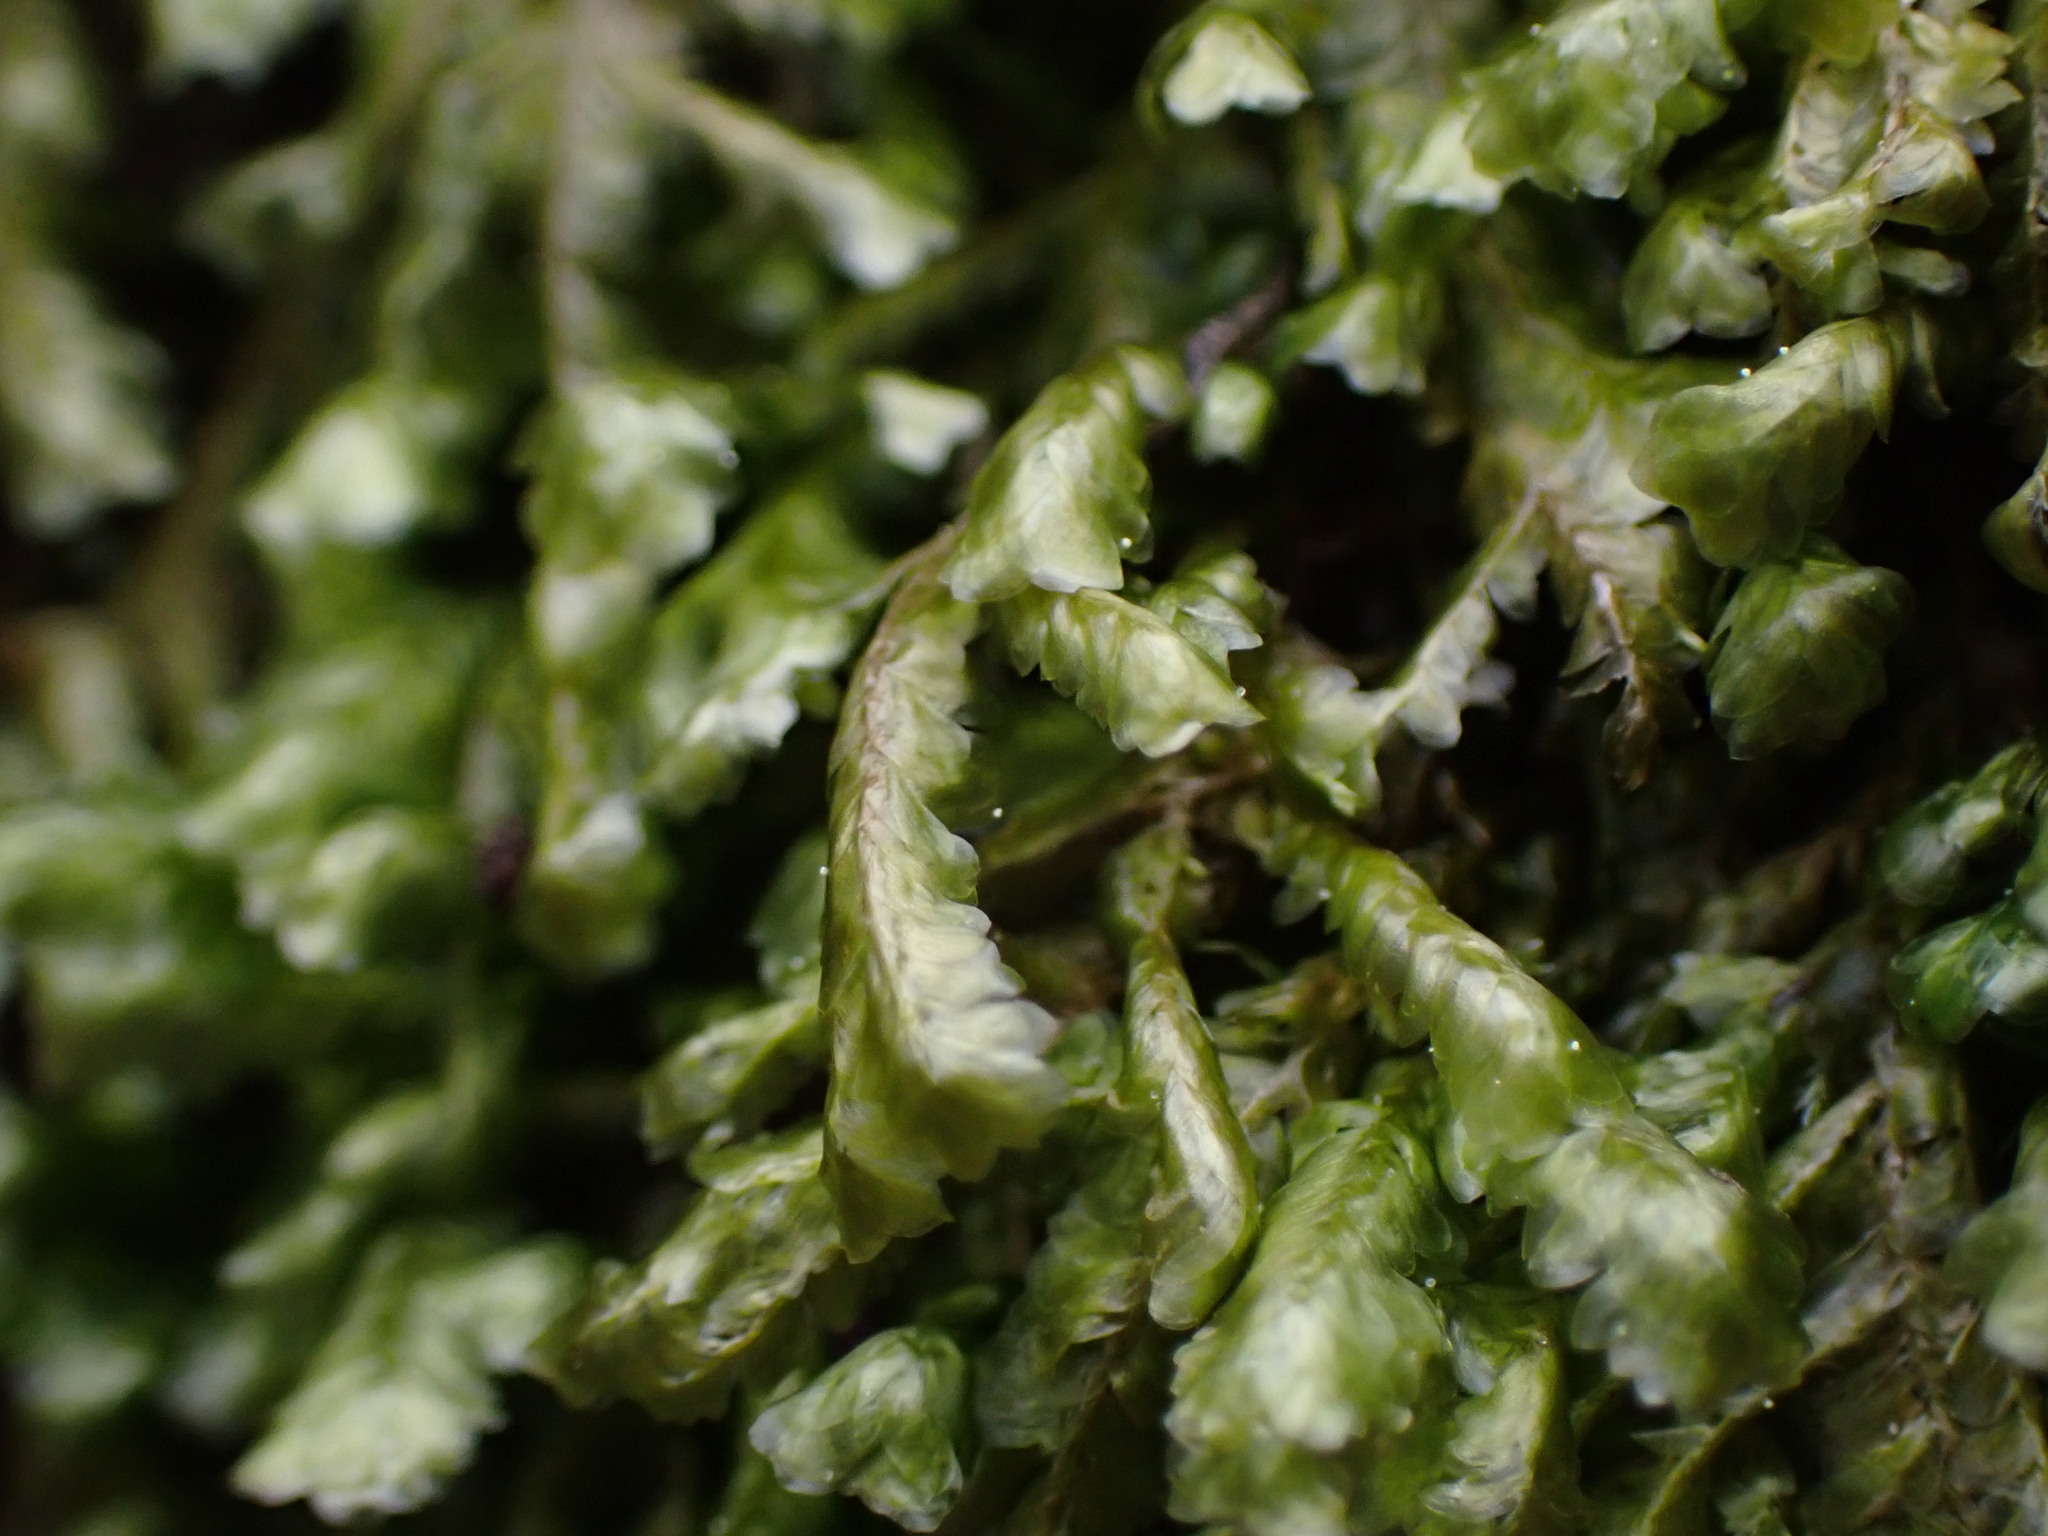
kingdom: Plantae
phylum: Bryophyta
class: Bryopsida
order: Hypnales
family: Neckeraceae
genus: Homalia
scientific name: Homalia trichomanoides
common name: Lime homalia moss
